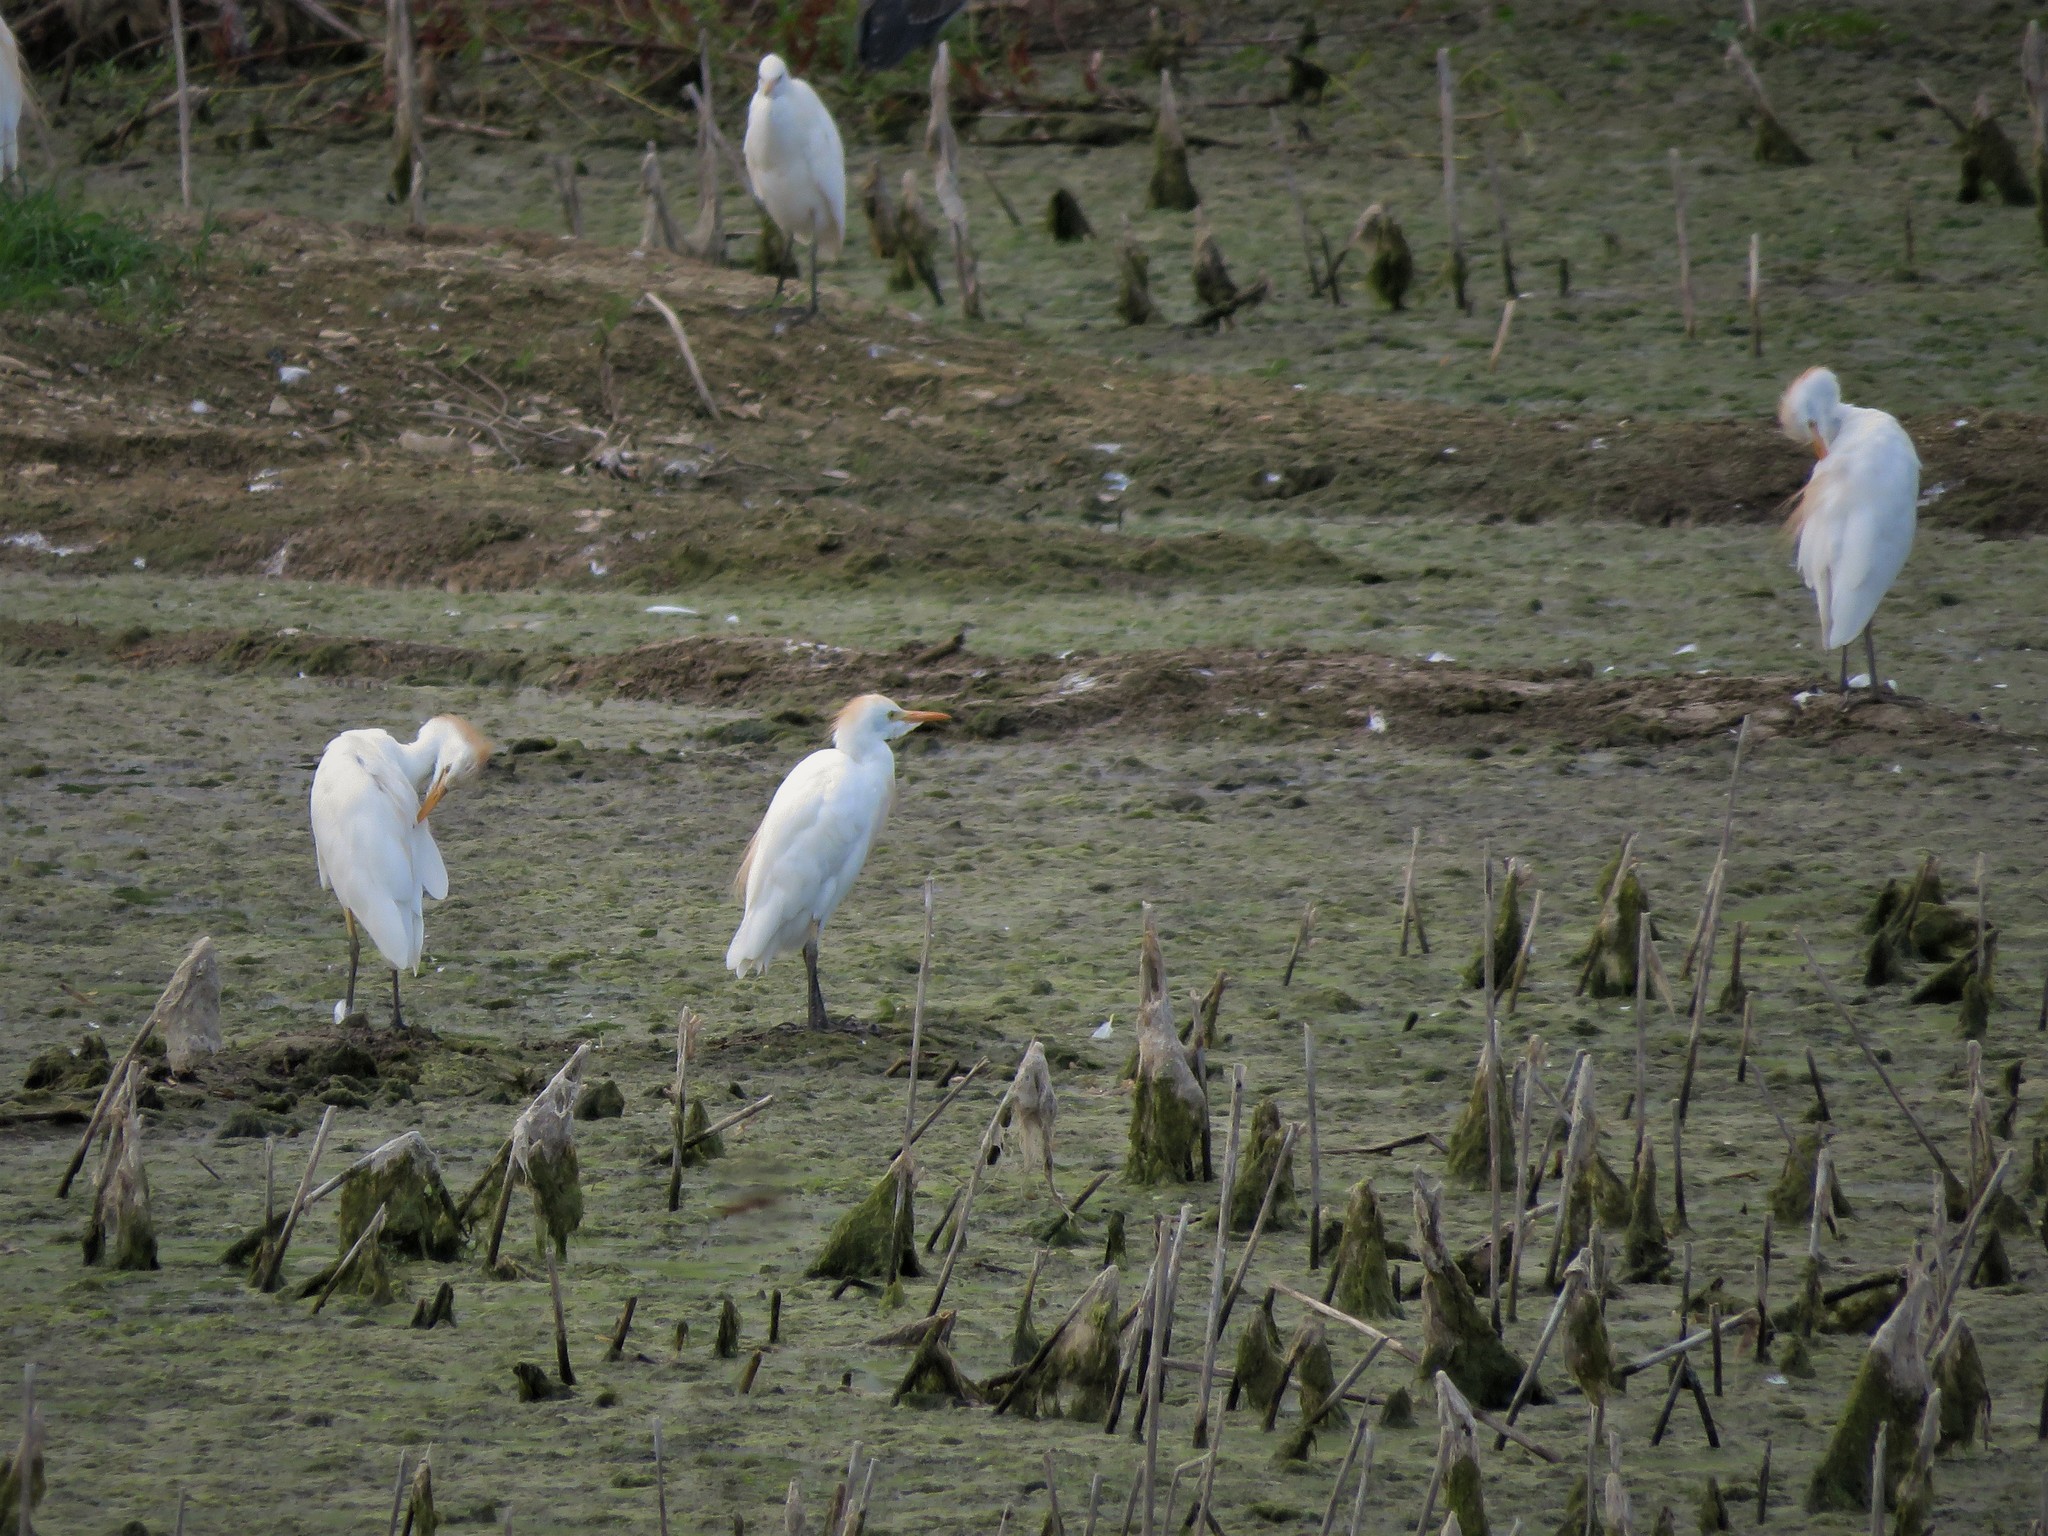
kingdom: Animalia
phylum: Chordata
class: Aves
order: Pelecaniformes
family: Ardeidae
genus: Bubulcus
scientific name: Bubulcus ibis
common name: Cattle egret
